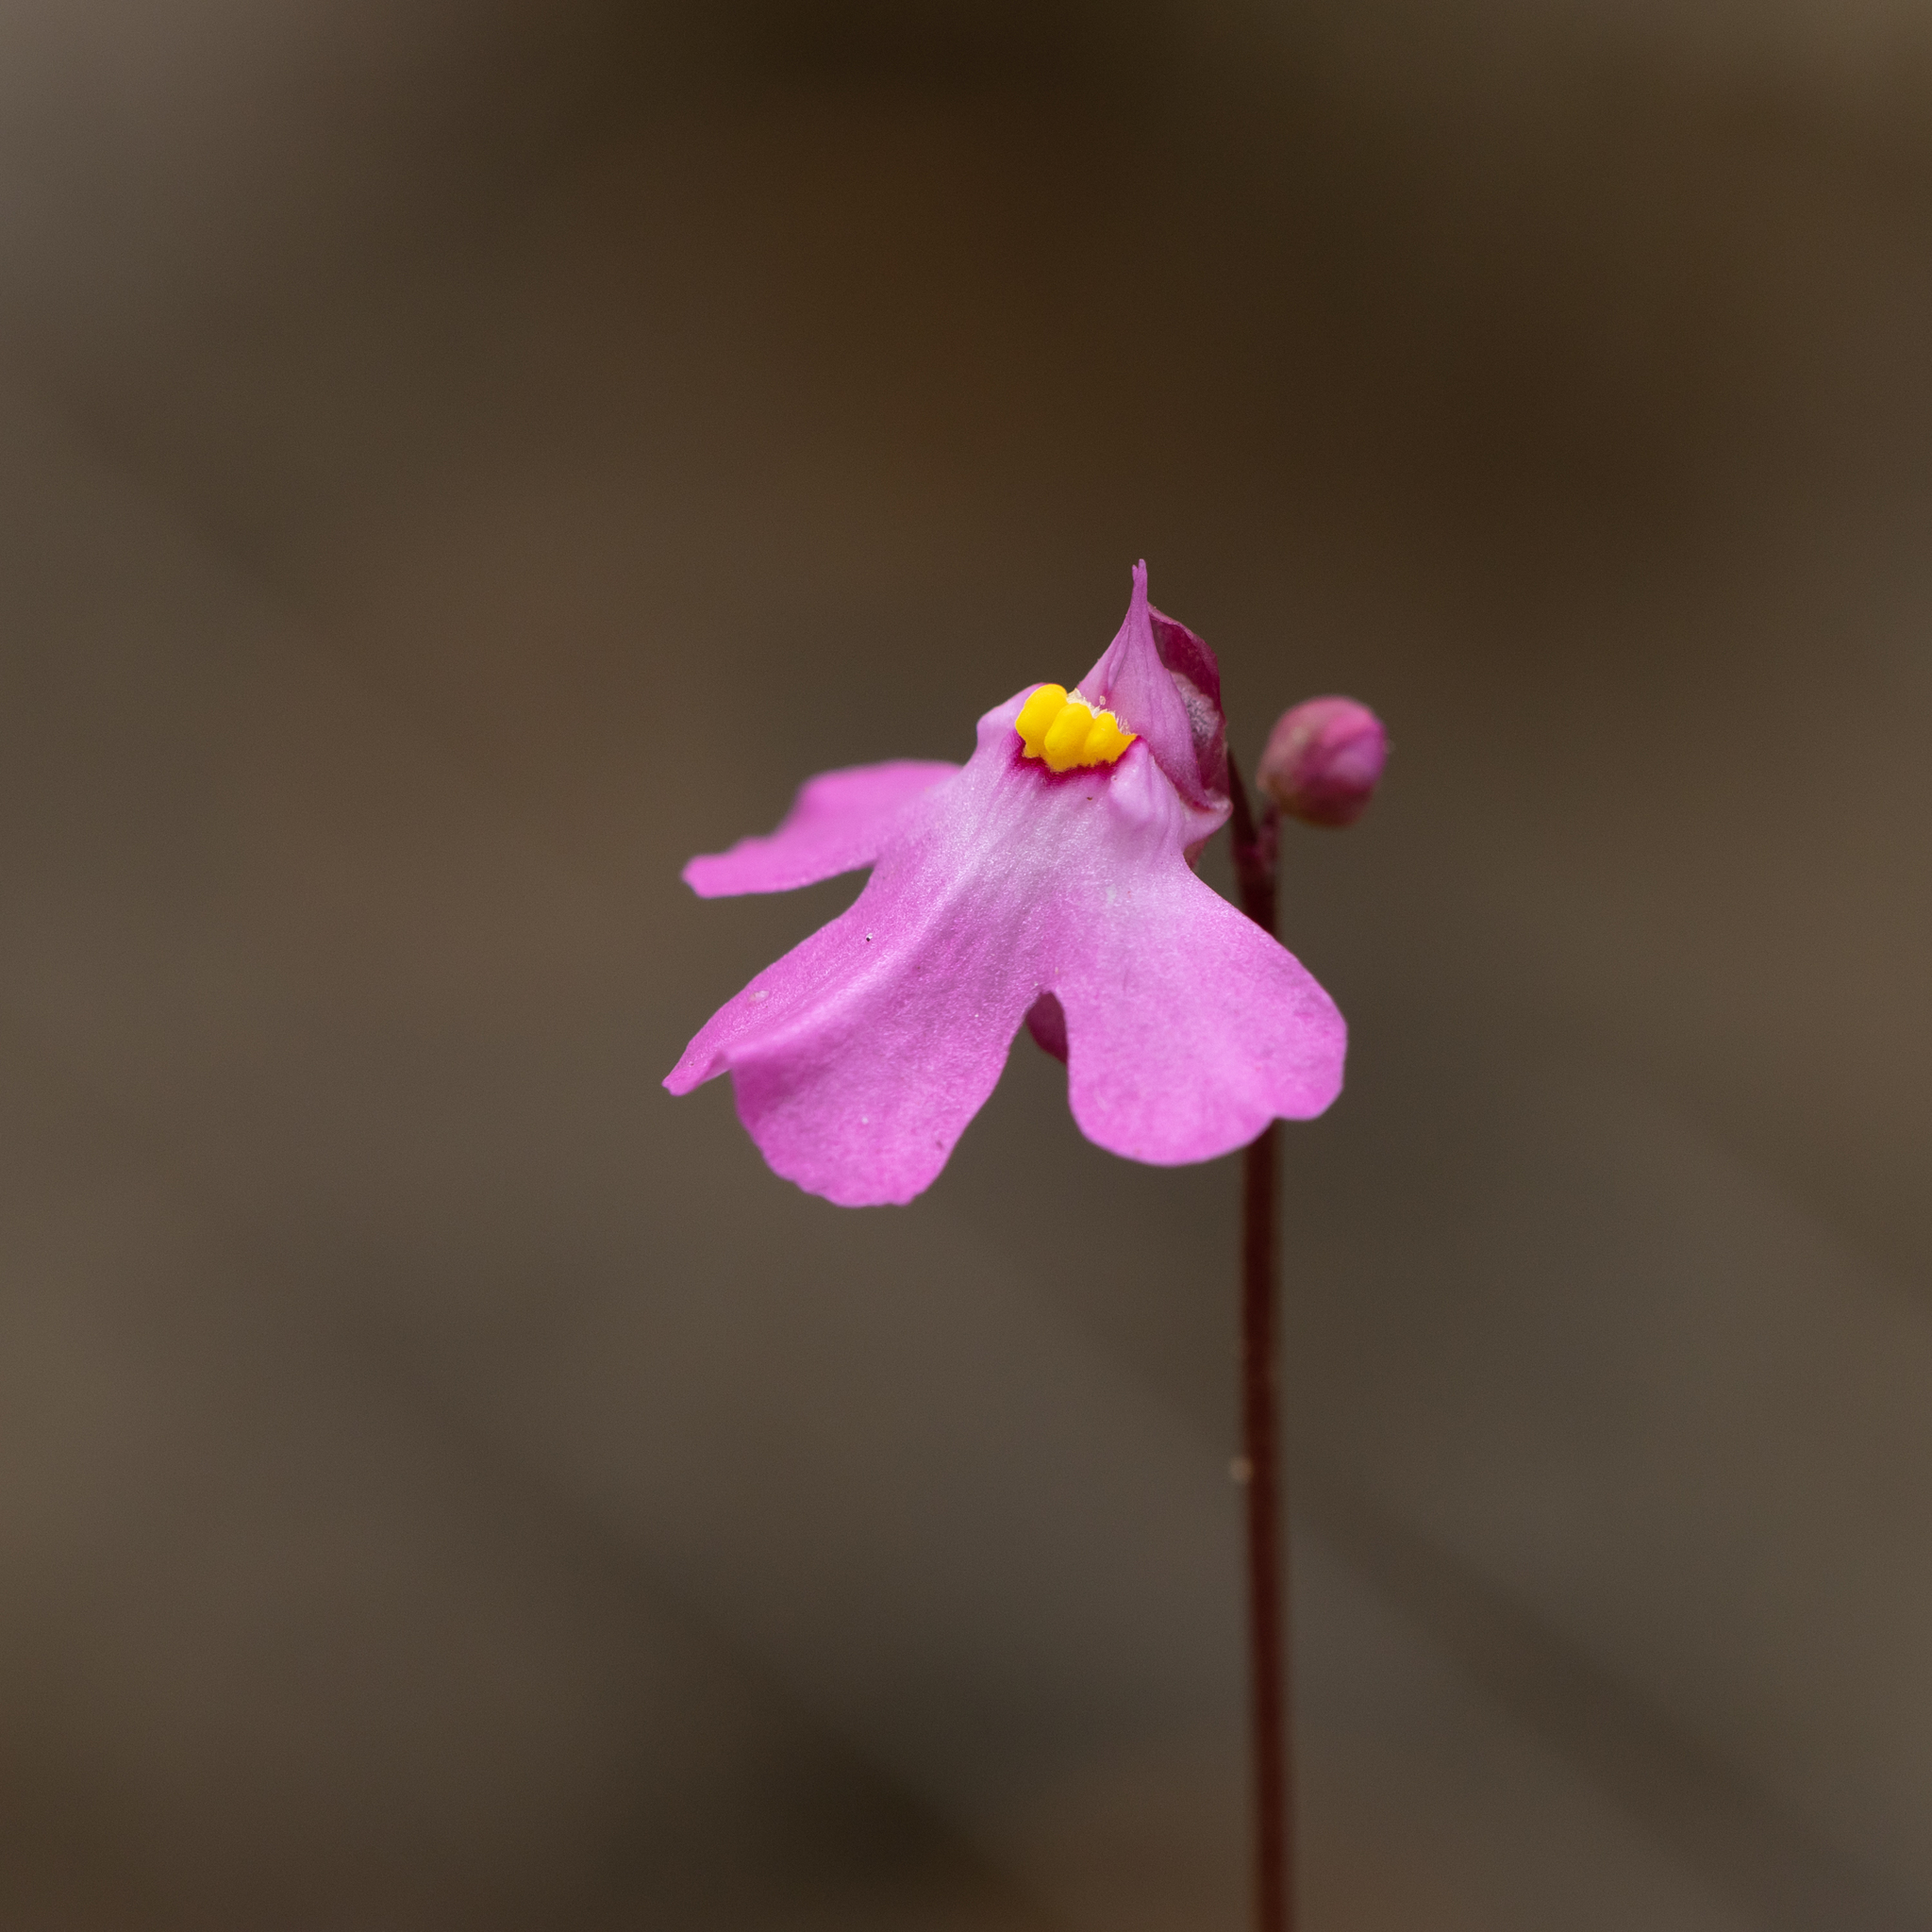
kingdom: Plantae
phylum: Tracheophyta
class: Magnoliopsida
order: Lamiales
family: Lentibulariaceae
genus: Utricularia
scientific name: Utricularia multifida
